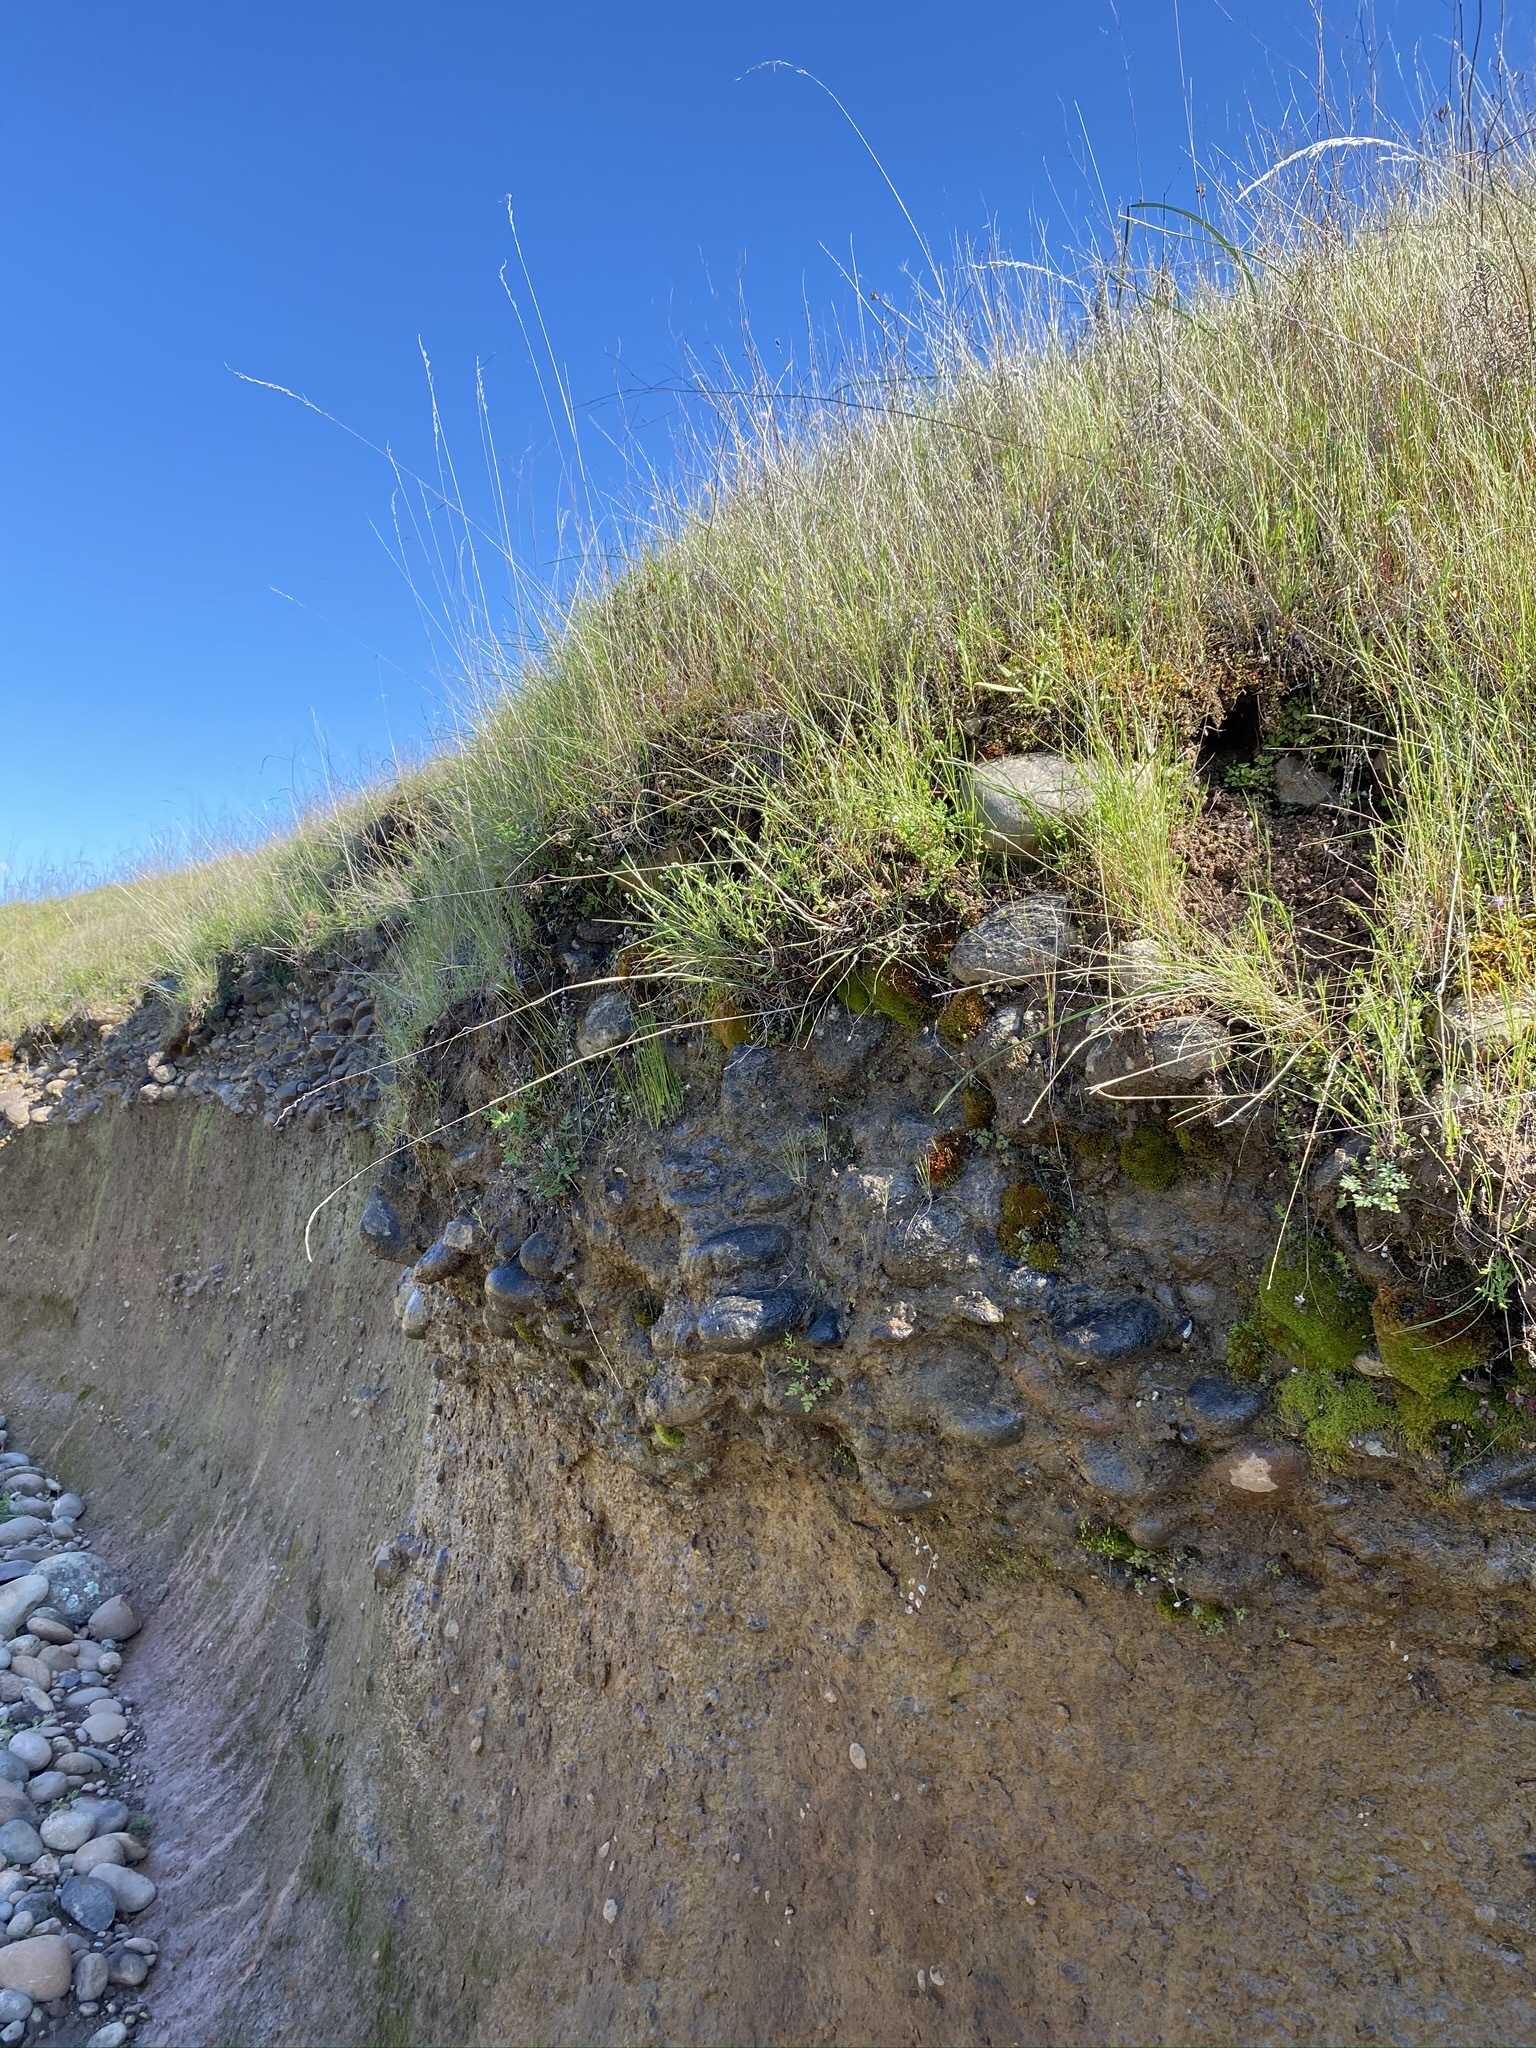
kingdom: Plantae
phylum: Tracheophyta
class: Magnoliopsida
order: Boraginales
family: Boraginaceae
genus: Pectocarya
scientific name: Pectocarya pusilla
